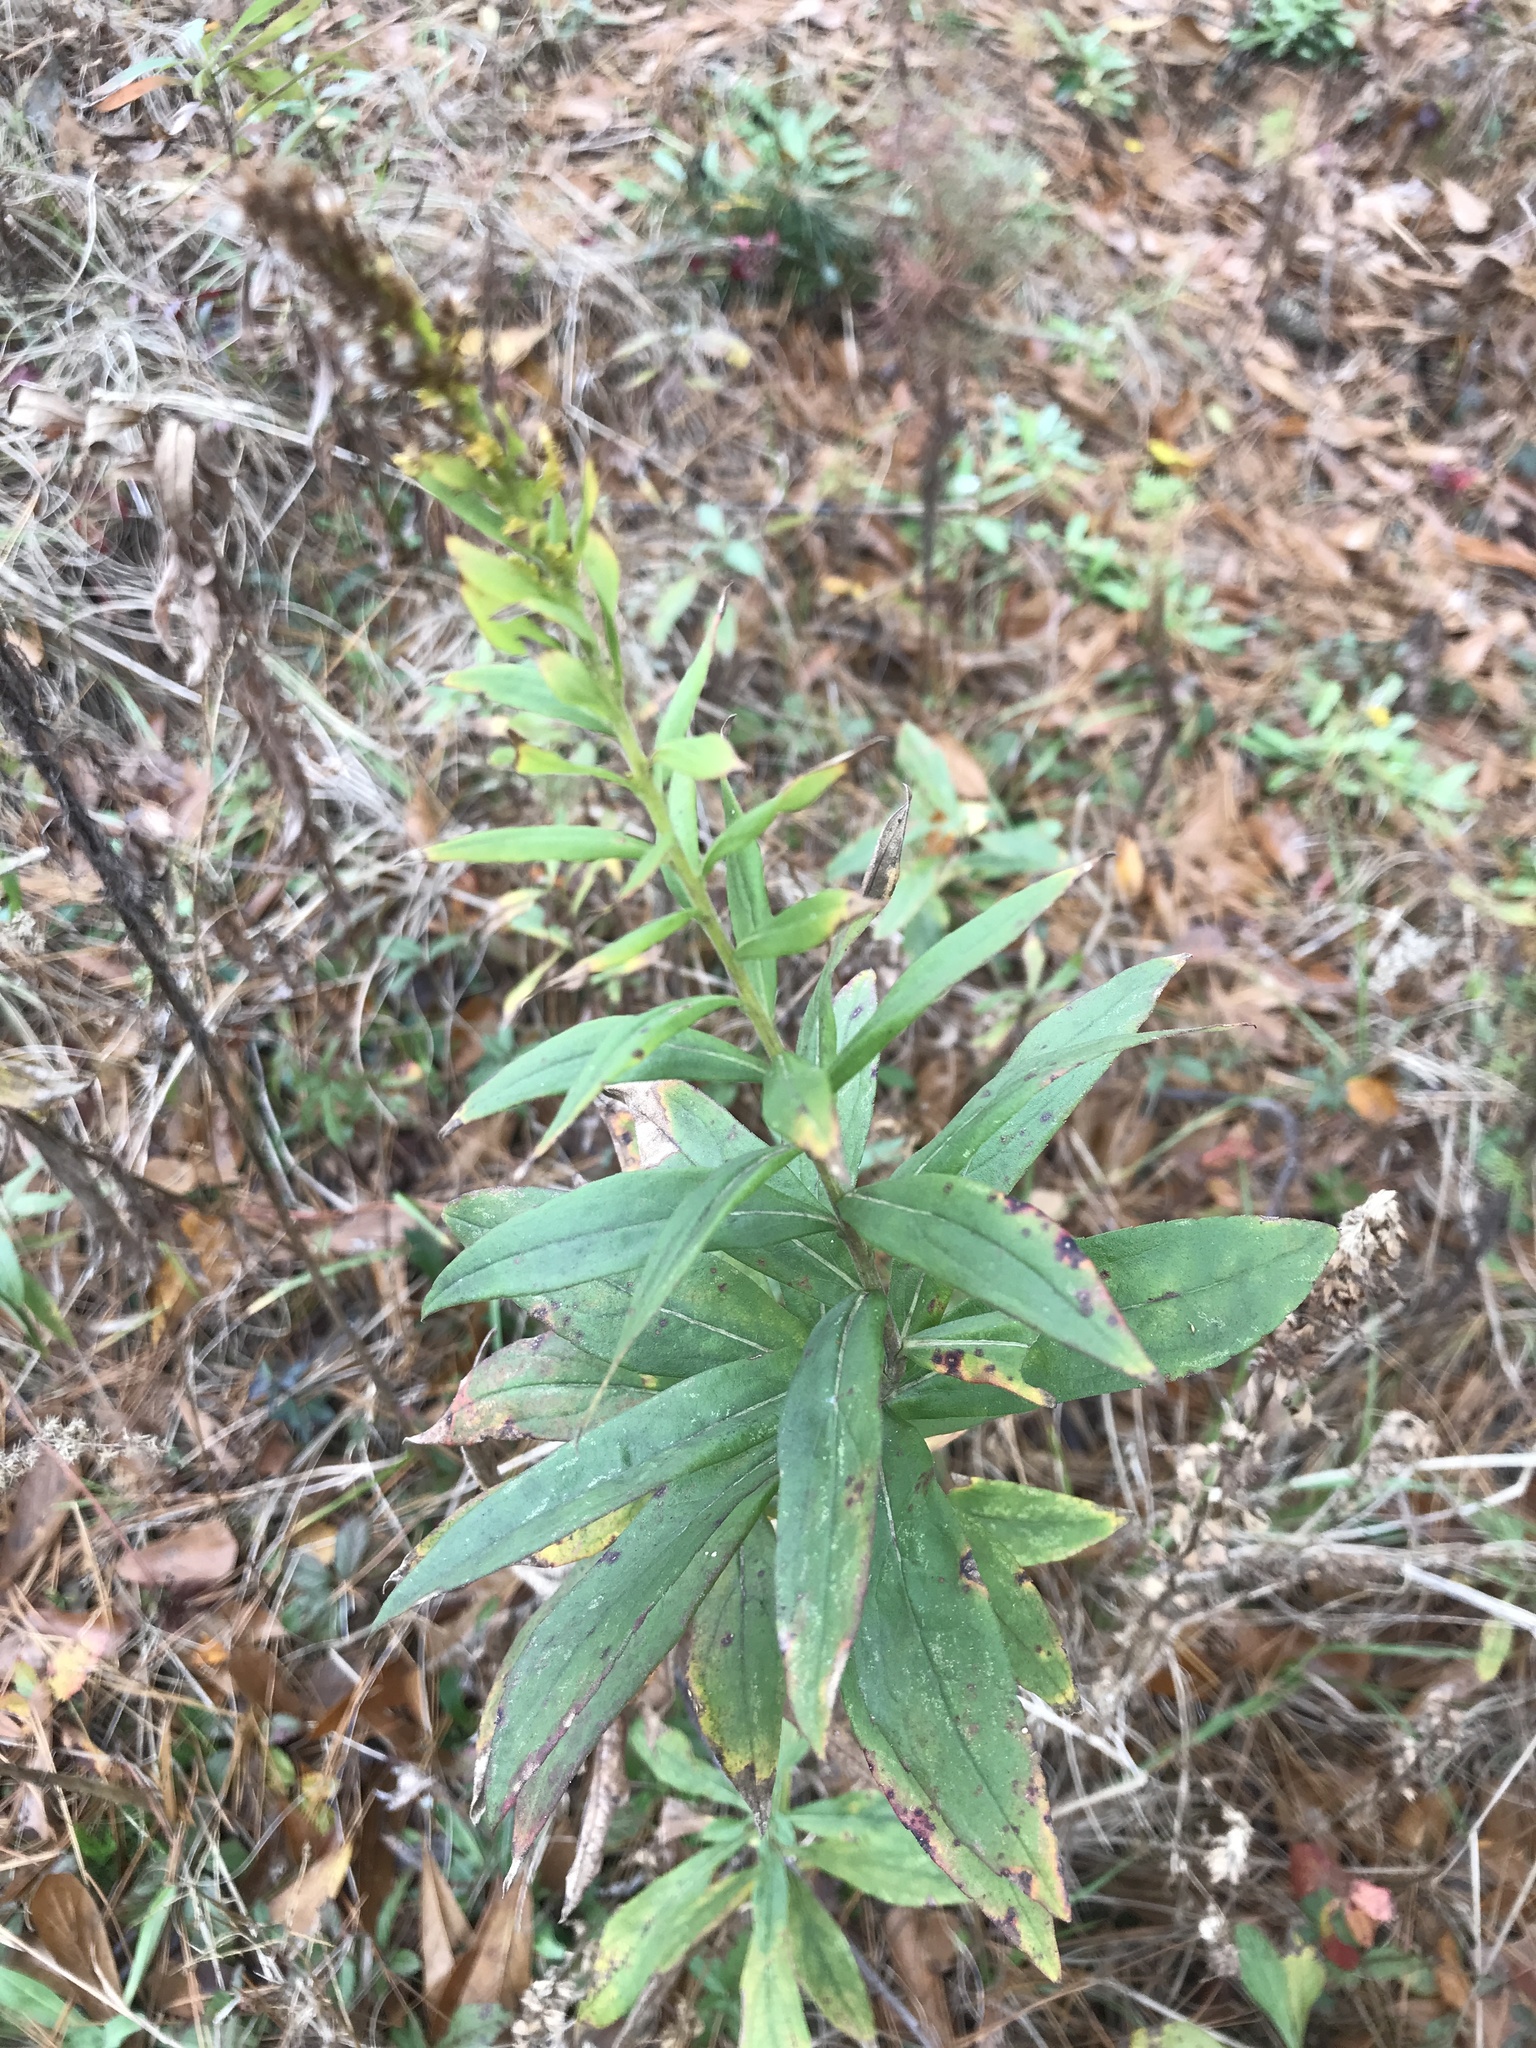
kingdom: Plantae
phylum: Tracheophyta
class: Magnoliopsida
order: Asterales
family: Asteraceae
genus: Solidago
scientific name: Solidago altissima
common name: Late goldenrod
